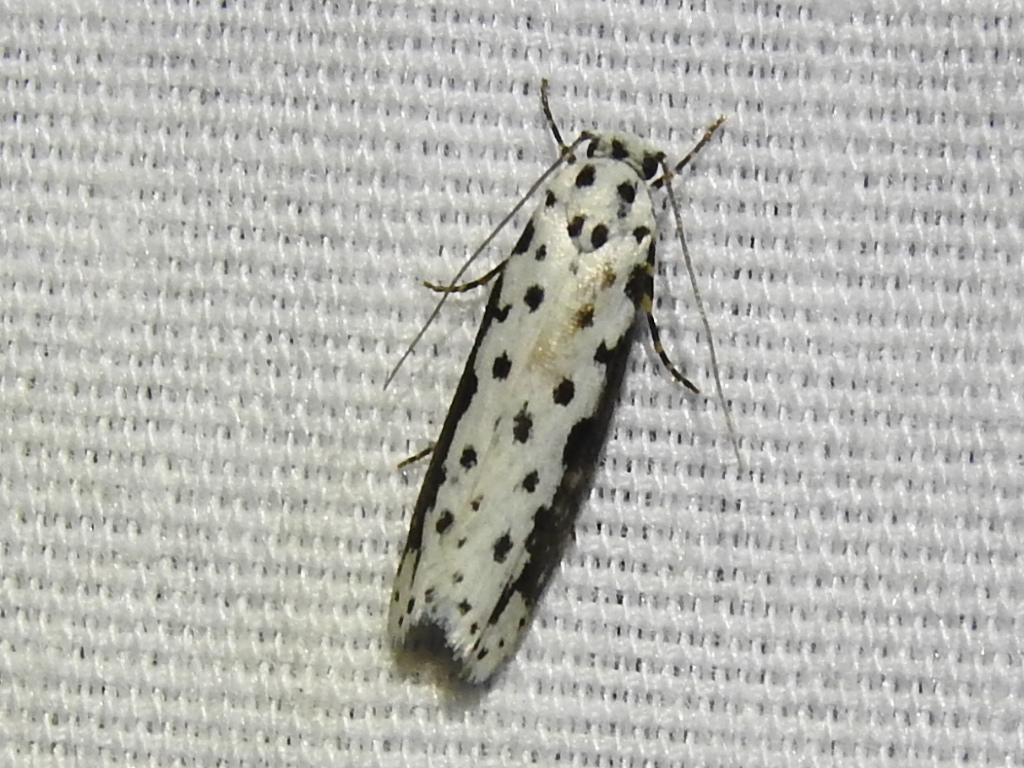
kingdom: Animalia
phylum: Arthropoda
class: Insecta
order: Lepidoptera
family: Ethmiidae
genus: Ethmia
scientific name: Ethmia hagenella
